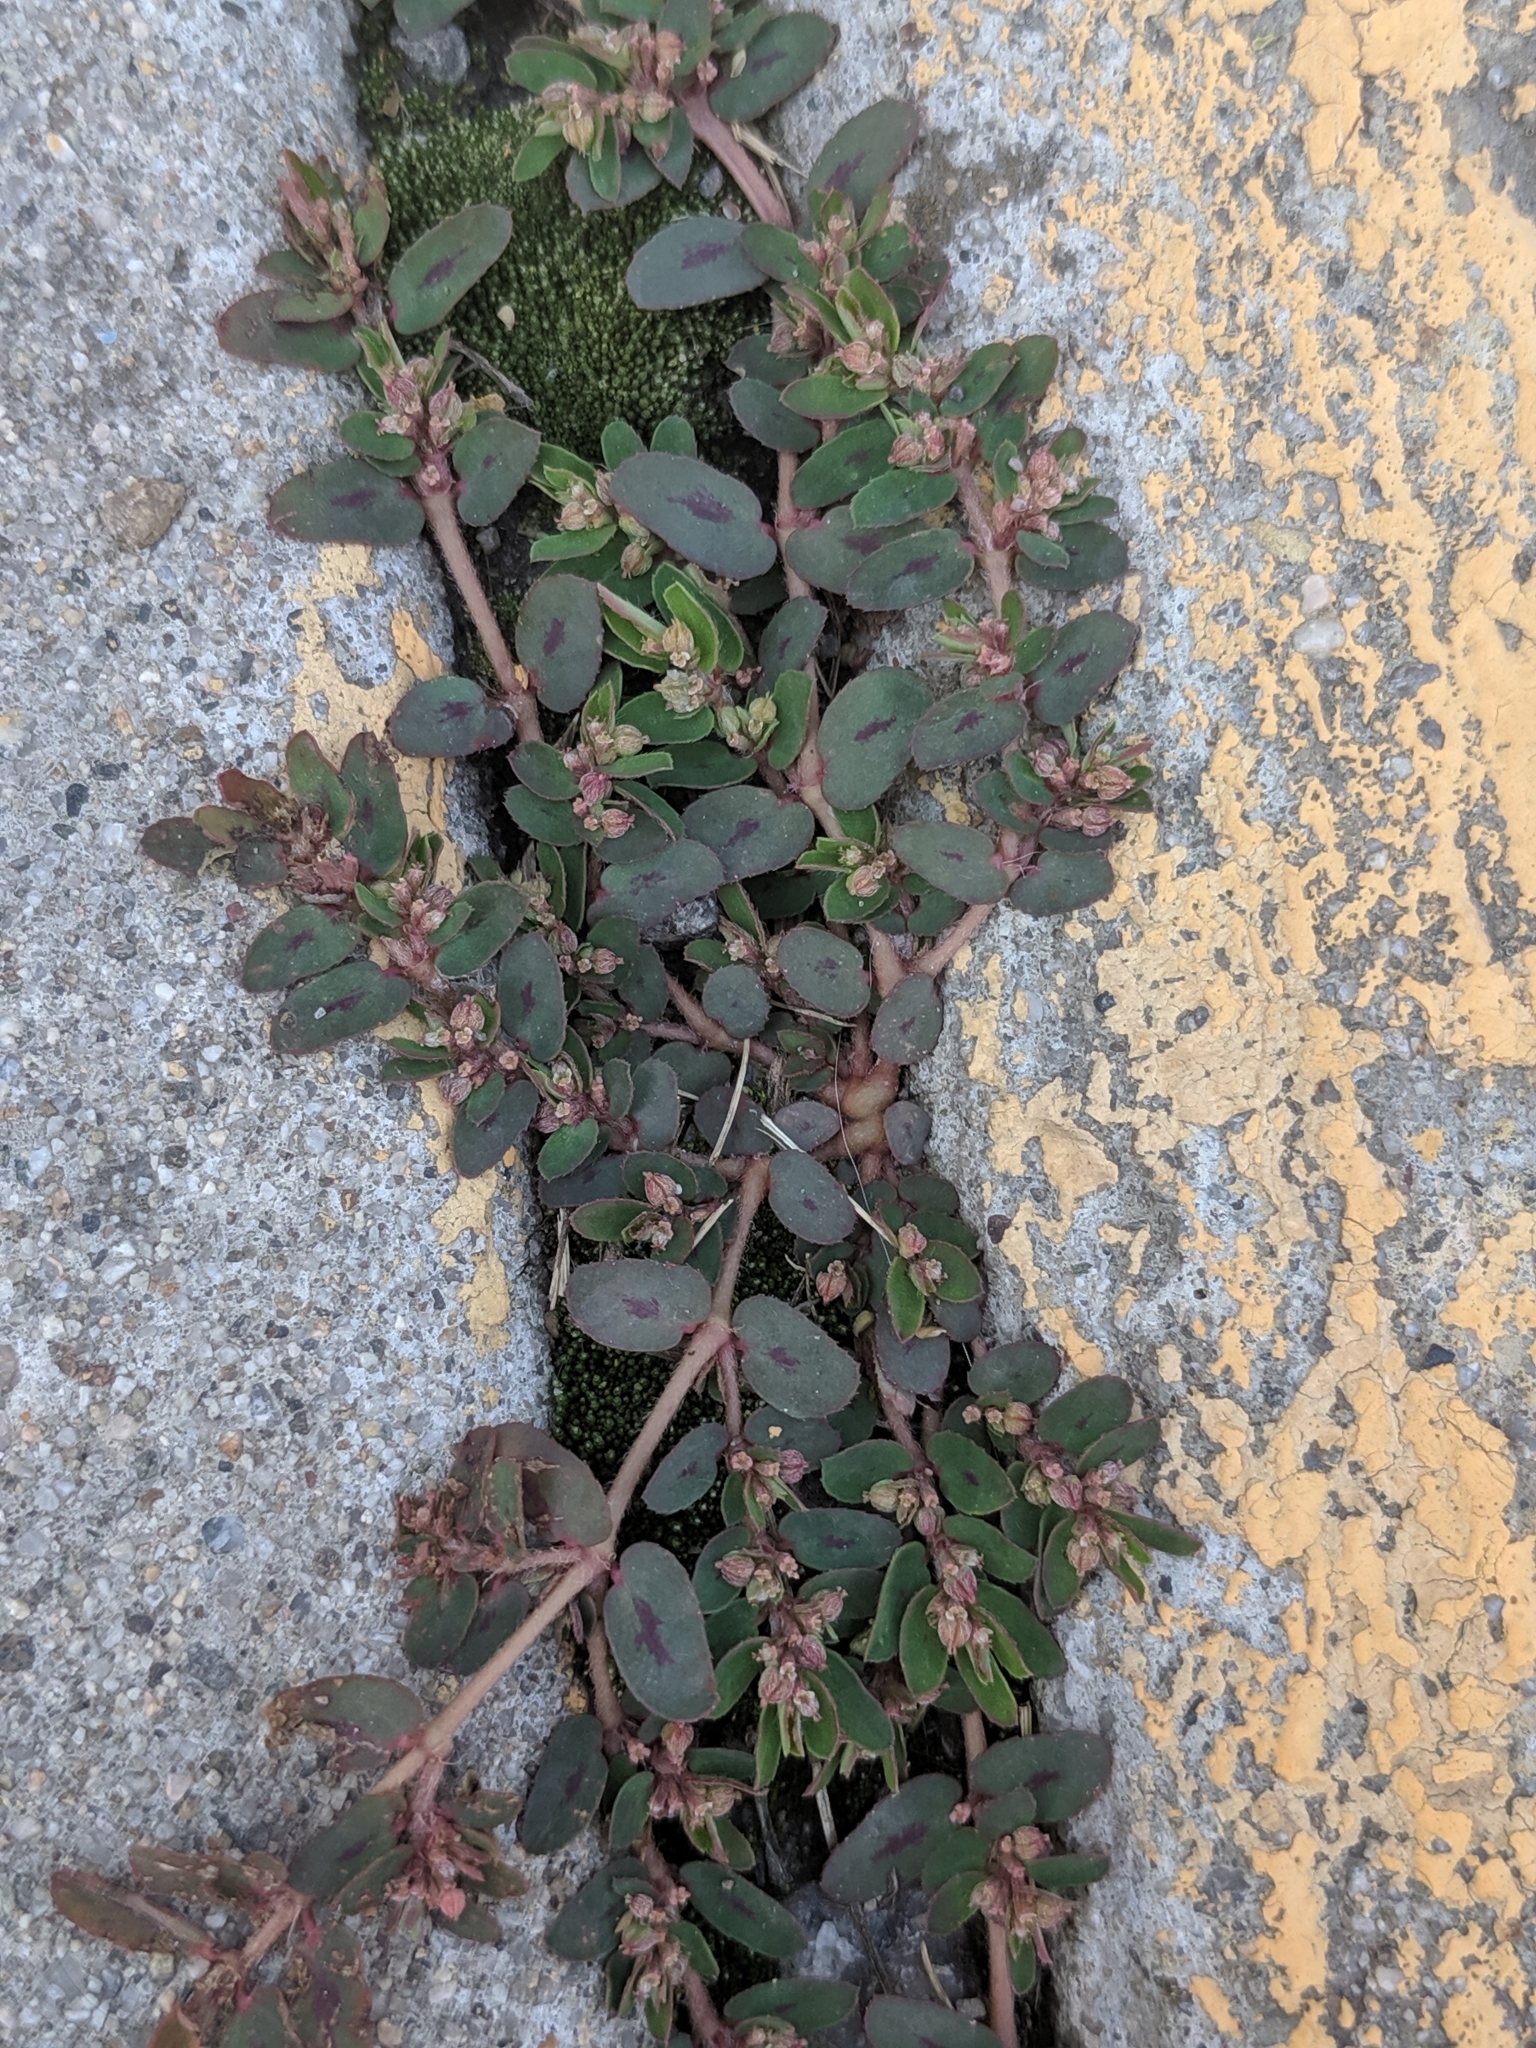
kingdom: Plantae
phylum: Tracheophyta
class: Magnoliopsida
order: Malpighiales
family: Euphorbiaceae
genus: Euphorbia
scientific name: Euphorbia maculata
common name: Spotted spurge
